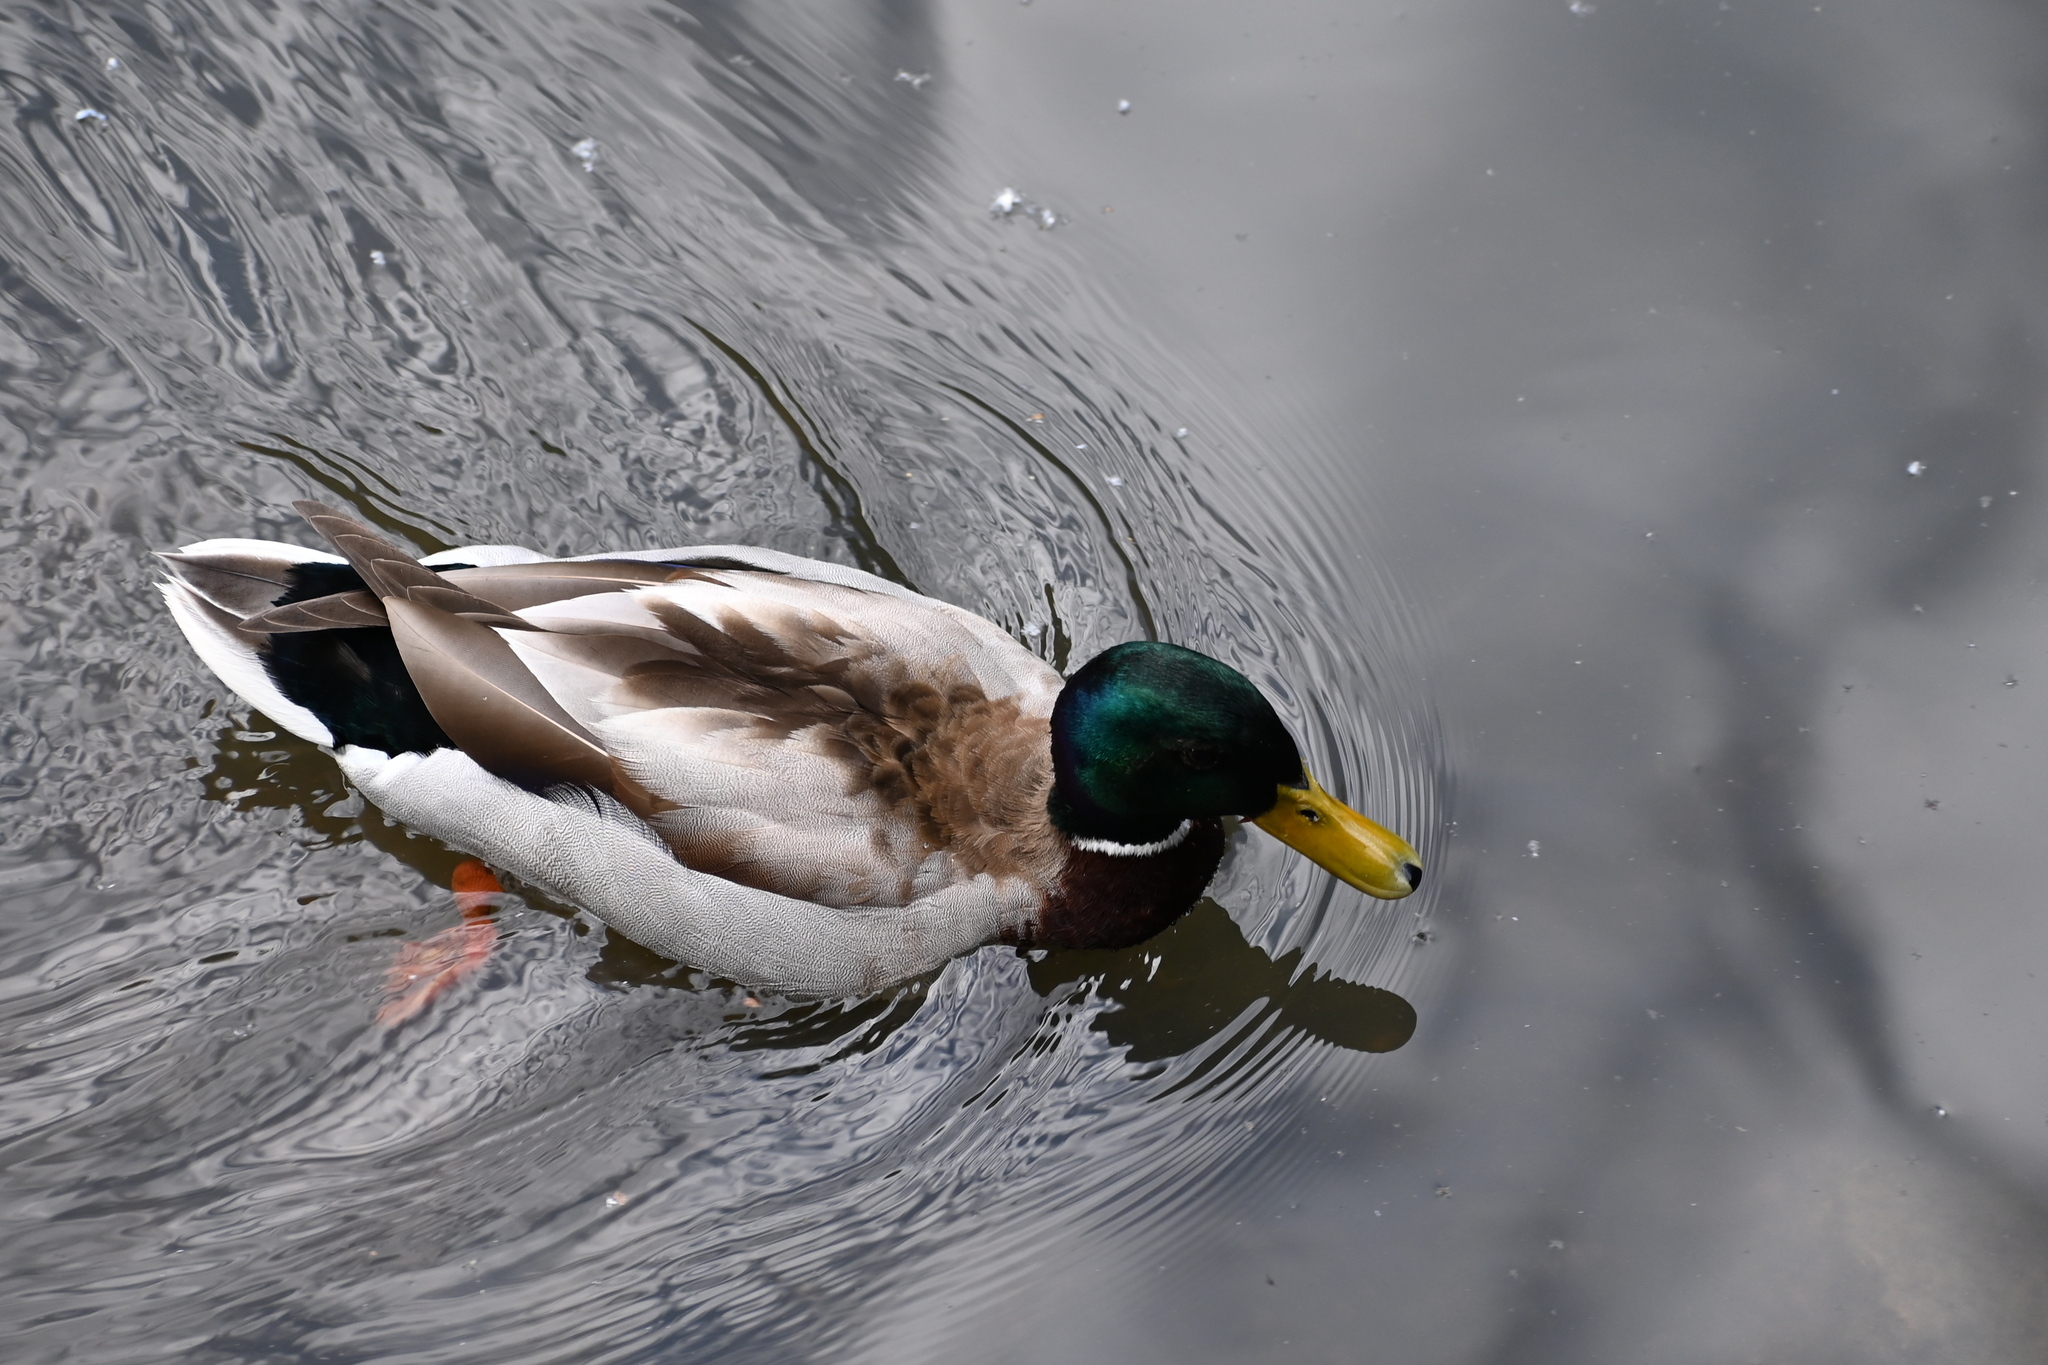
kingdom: Animalia
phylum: Chordata
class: Aves
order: Anseriformes
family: Anatidae
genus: Anas
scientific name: Anas platyrhynchos
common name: Mallard
